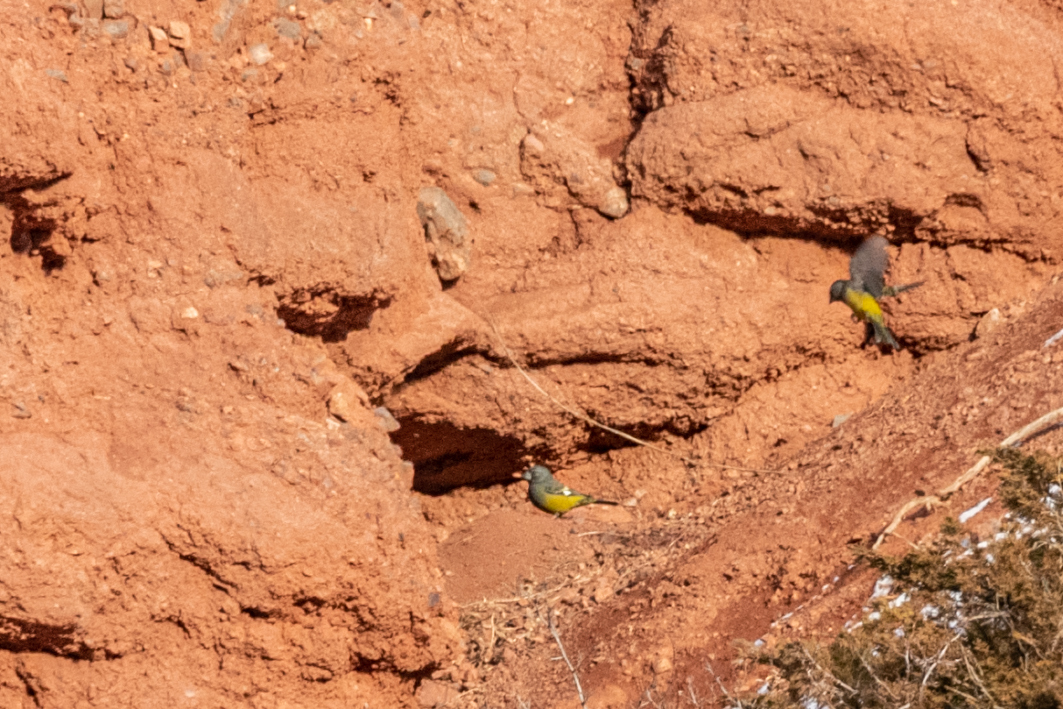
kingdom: Animalia
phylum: Chordata
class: Aves
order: Passeriformes
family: Fringillidae
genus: Mycerobas
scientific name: Mycerobas carnipes
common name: White-winged grosbeak
